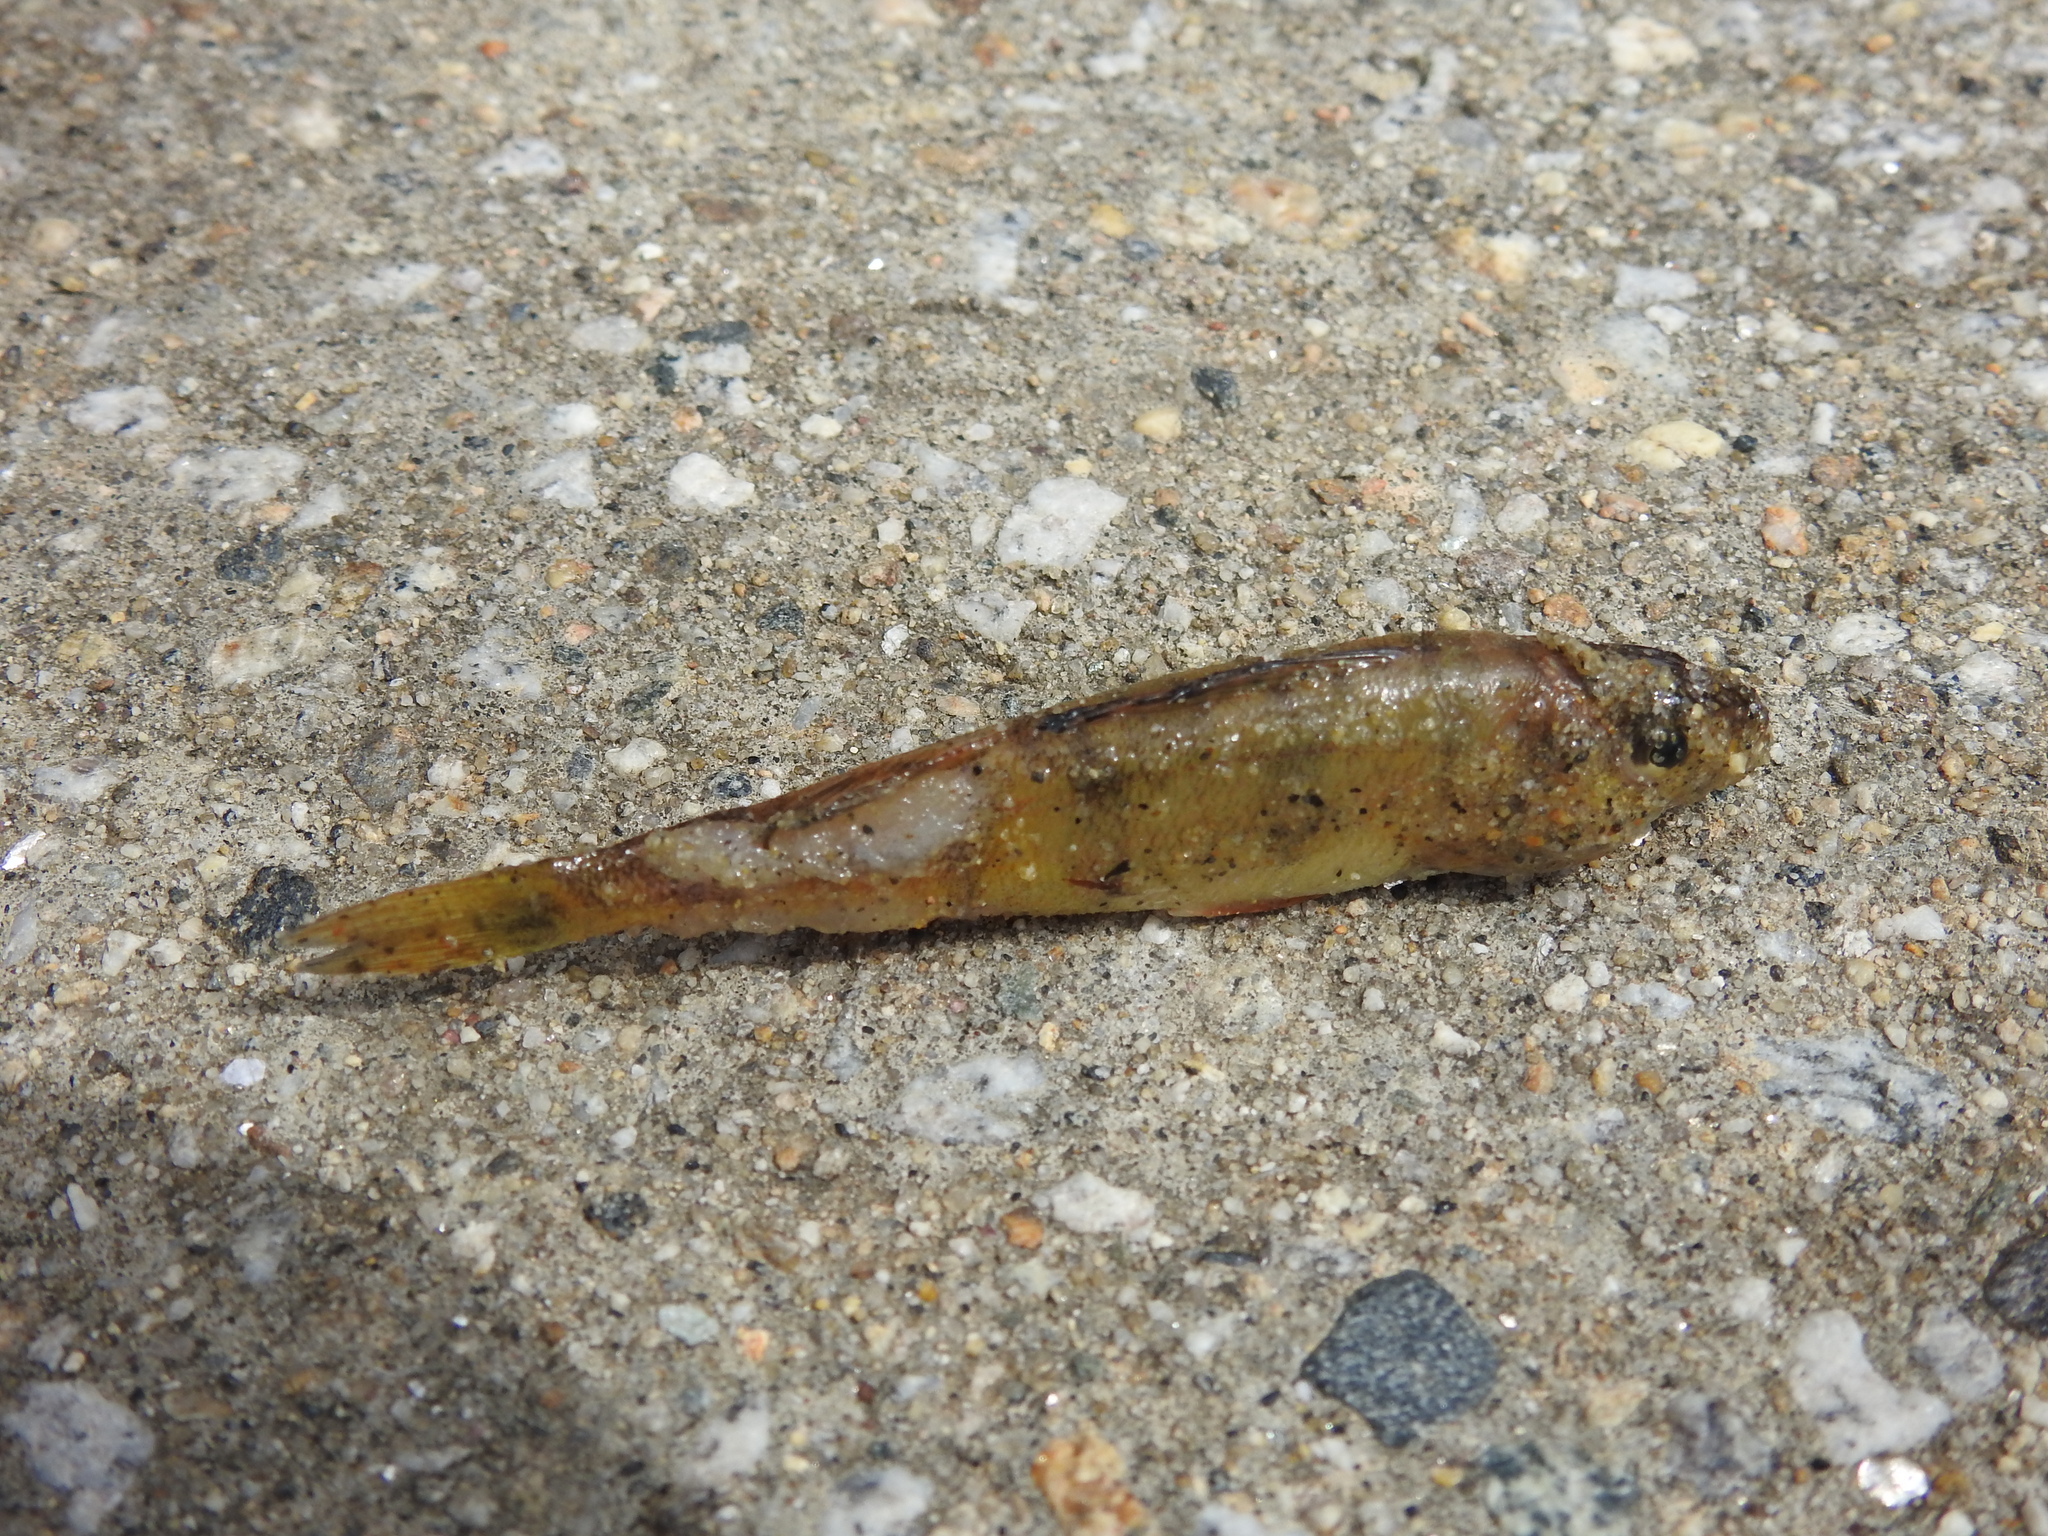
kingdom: Animalia
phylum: Chordata
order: Perciformes
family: Percidae
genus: Perca
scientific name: Perca flavescens
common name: Yellow perch
